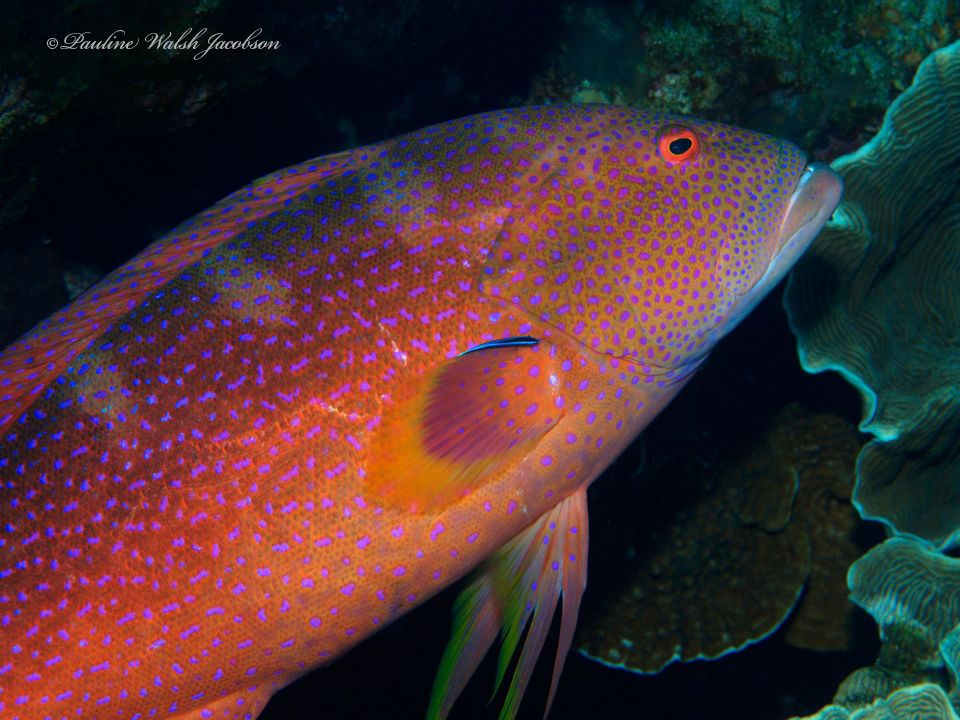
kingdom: Animalia
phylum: Chordata
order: Perciformes
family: Serranidae
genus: Variola
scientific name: Variola louti
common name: Yellow-edged lyretail
